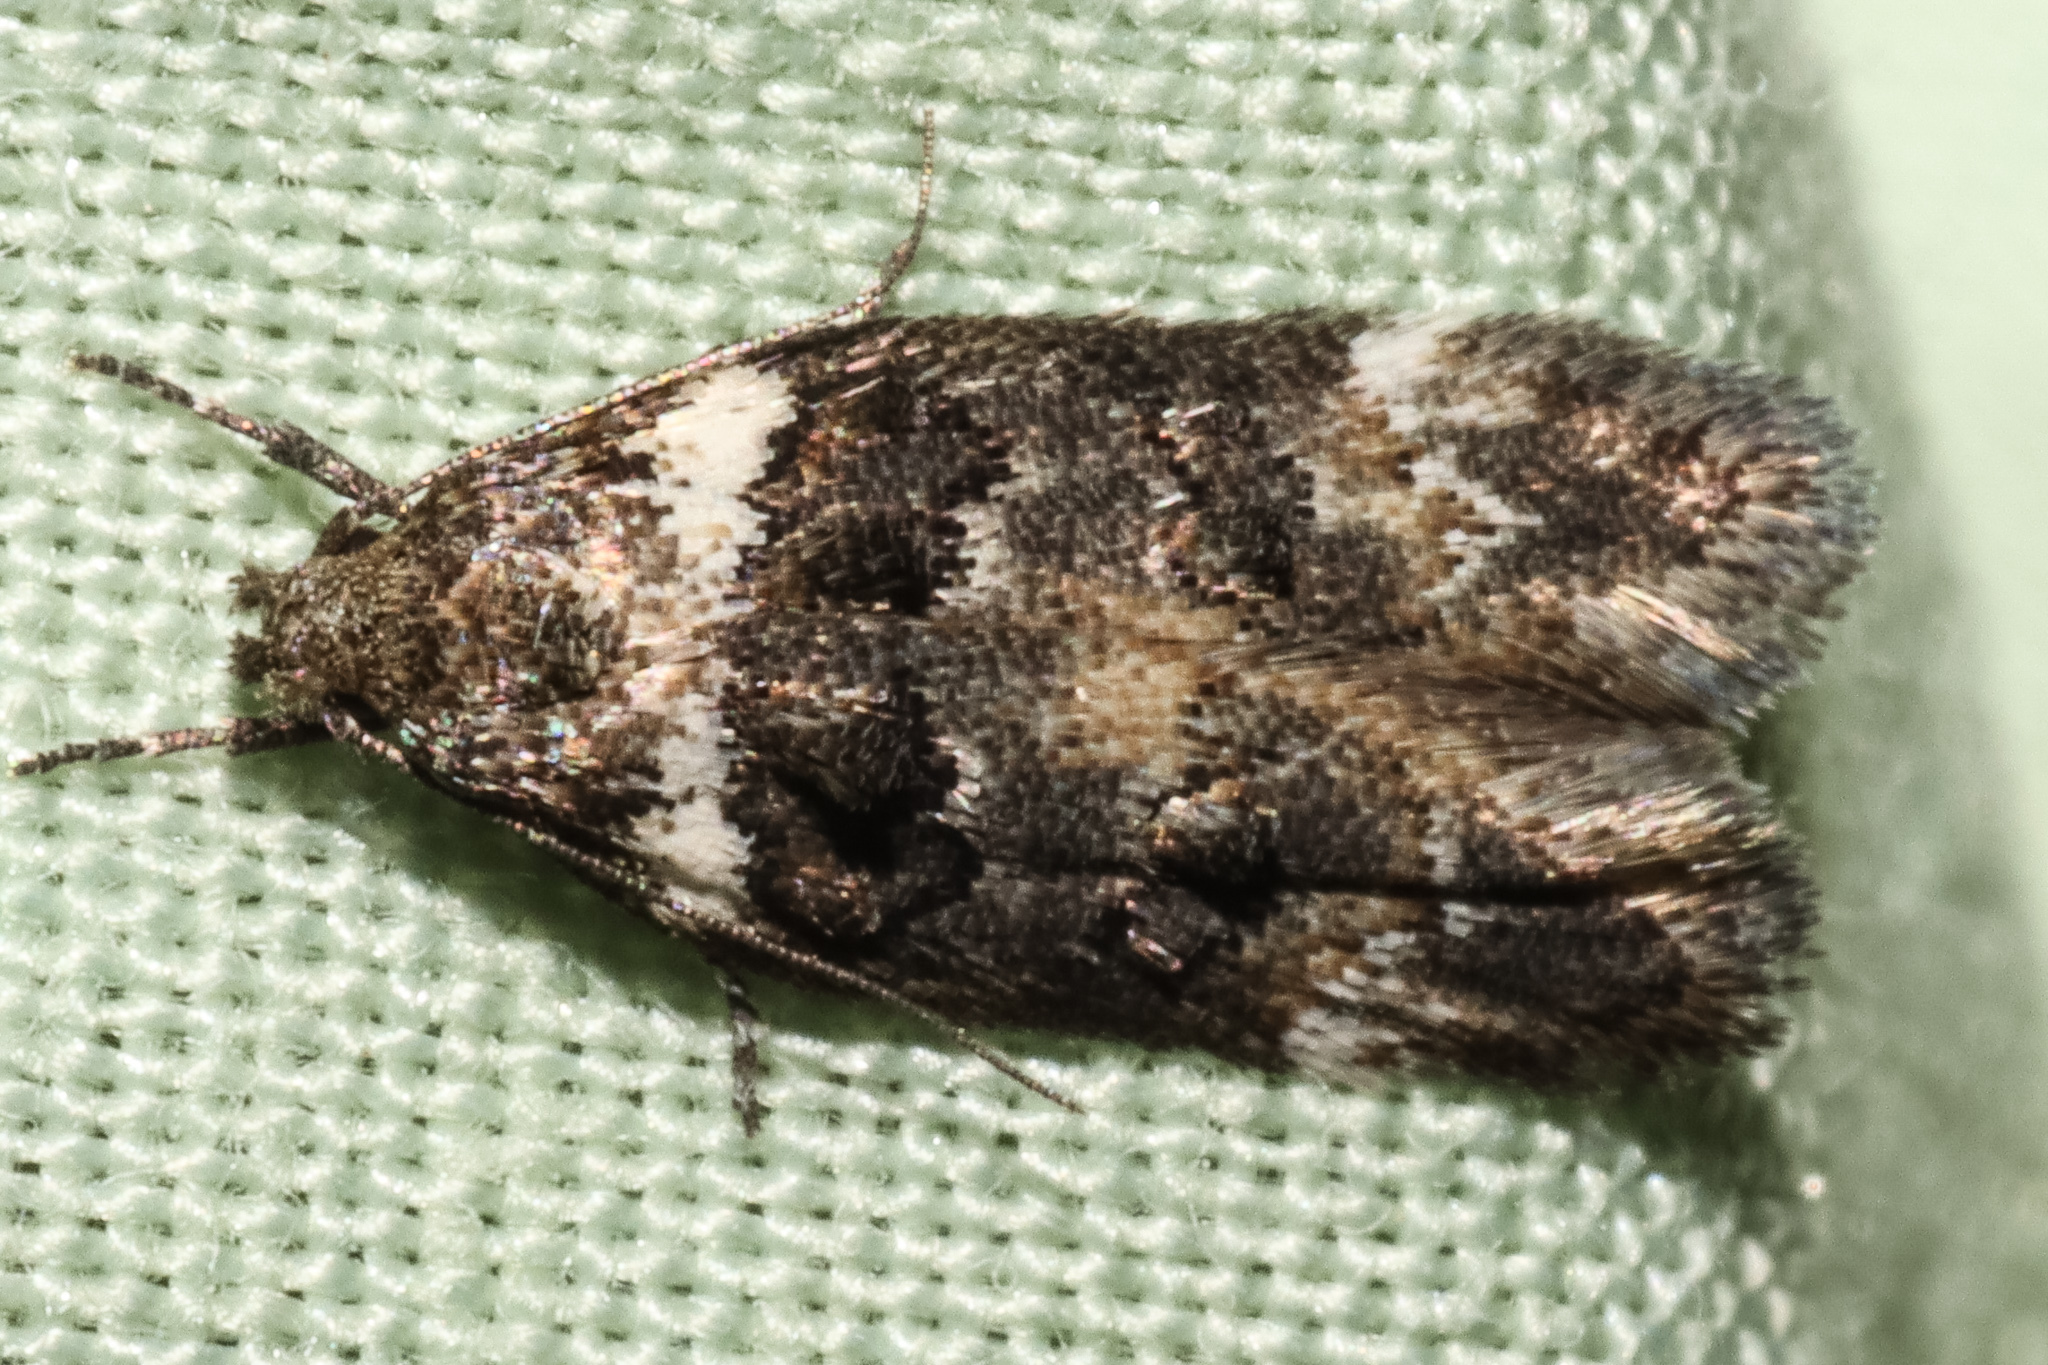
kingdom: Animalia
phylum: Arthropoda
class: Insecta
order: Lepidoptera
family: Oecophoridae
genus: Trachypepla
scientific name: Trachypepla conspicuella
